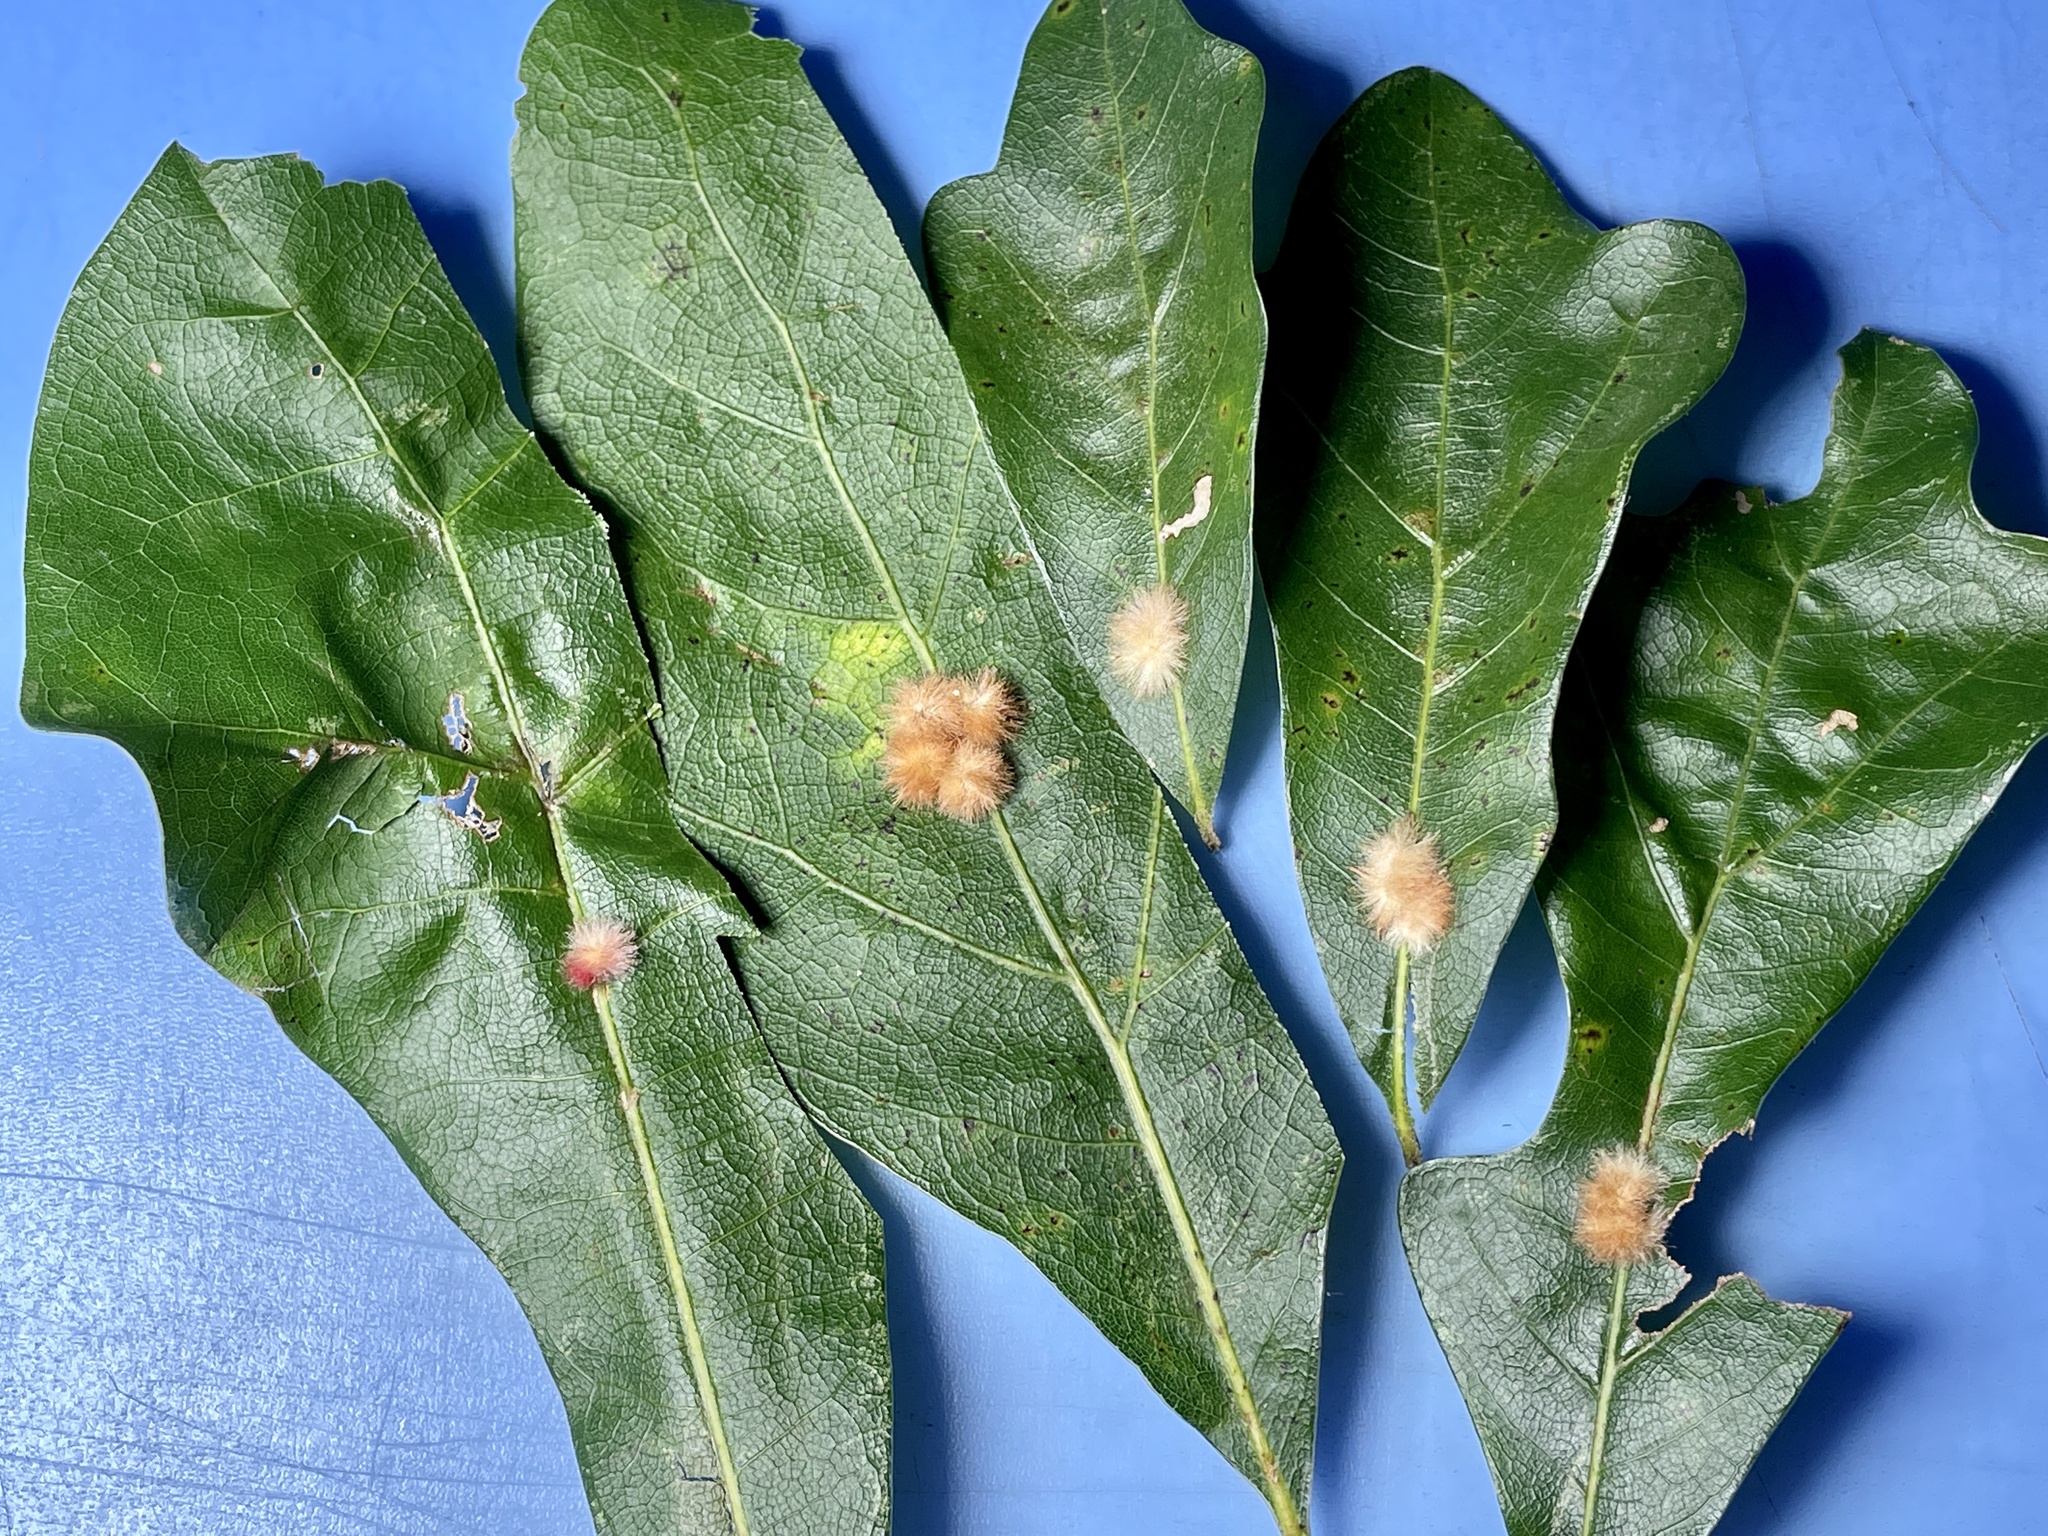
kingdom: Animalia
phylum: Arthropoda
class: Insecta
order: Hymenoptera
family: Cynipidae
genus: Callirhytis
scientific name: Callirhytis
